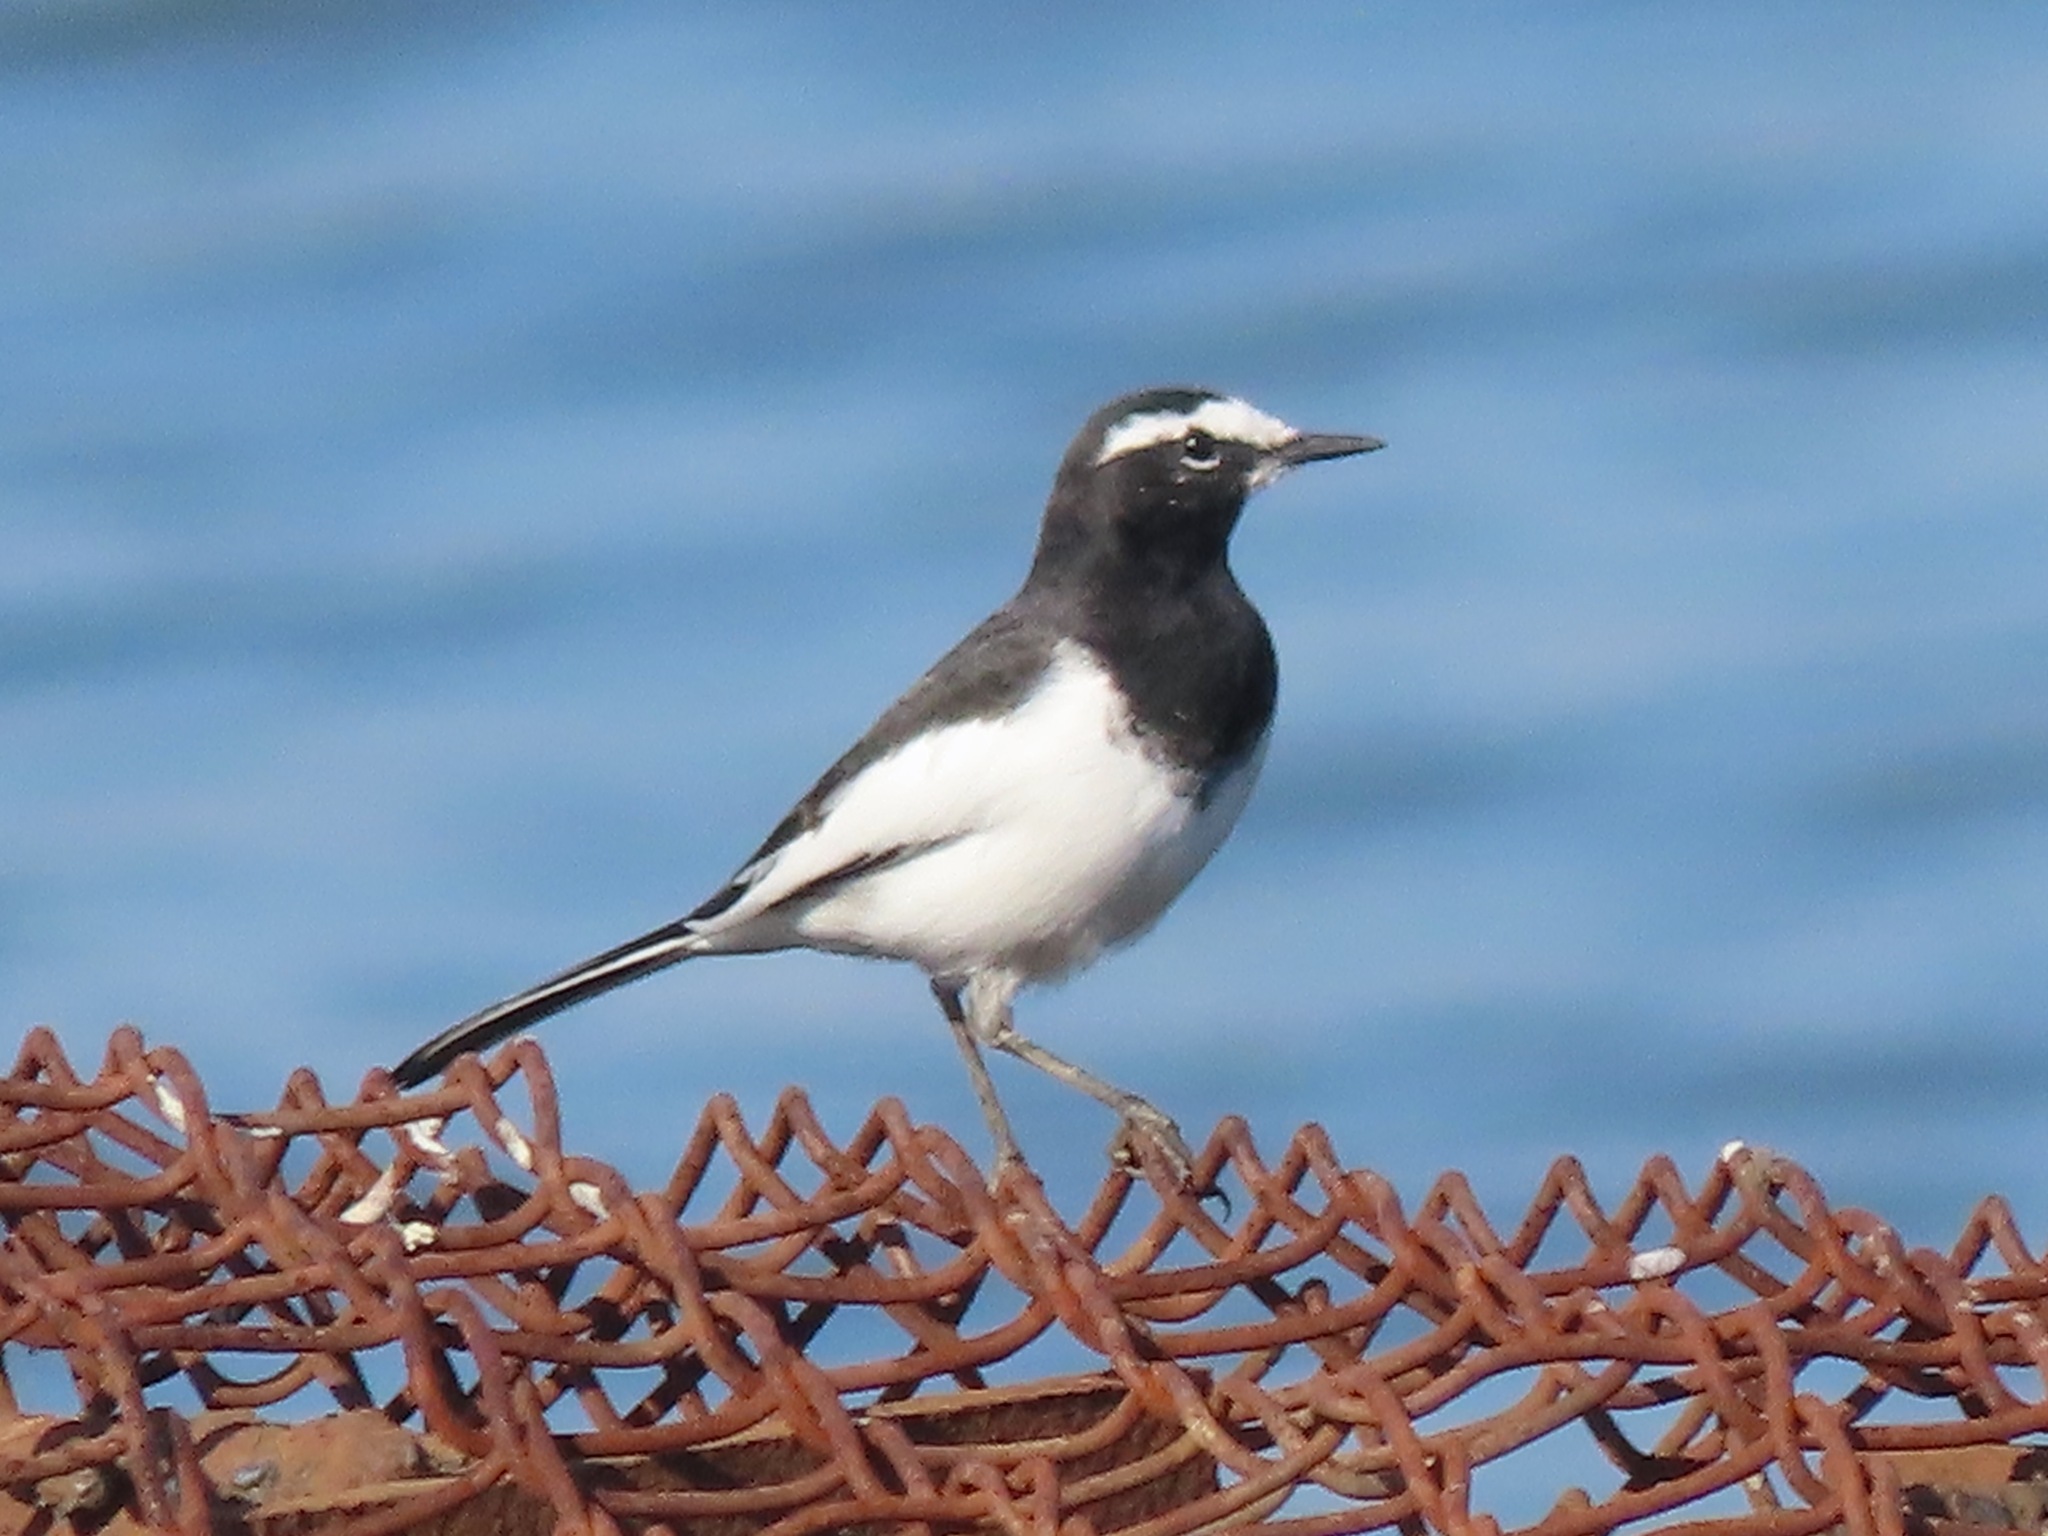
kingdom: Animalia
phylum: Chordata
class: Aves
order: Passeriformes
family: Motacillidae
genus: Motacilla
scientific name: Motacilla grandis
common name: Japanese wagtail
